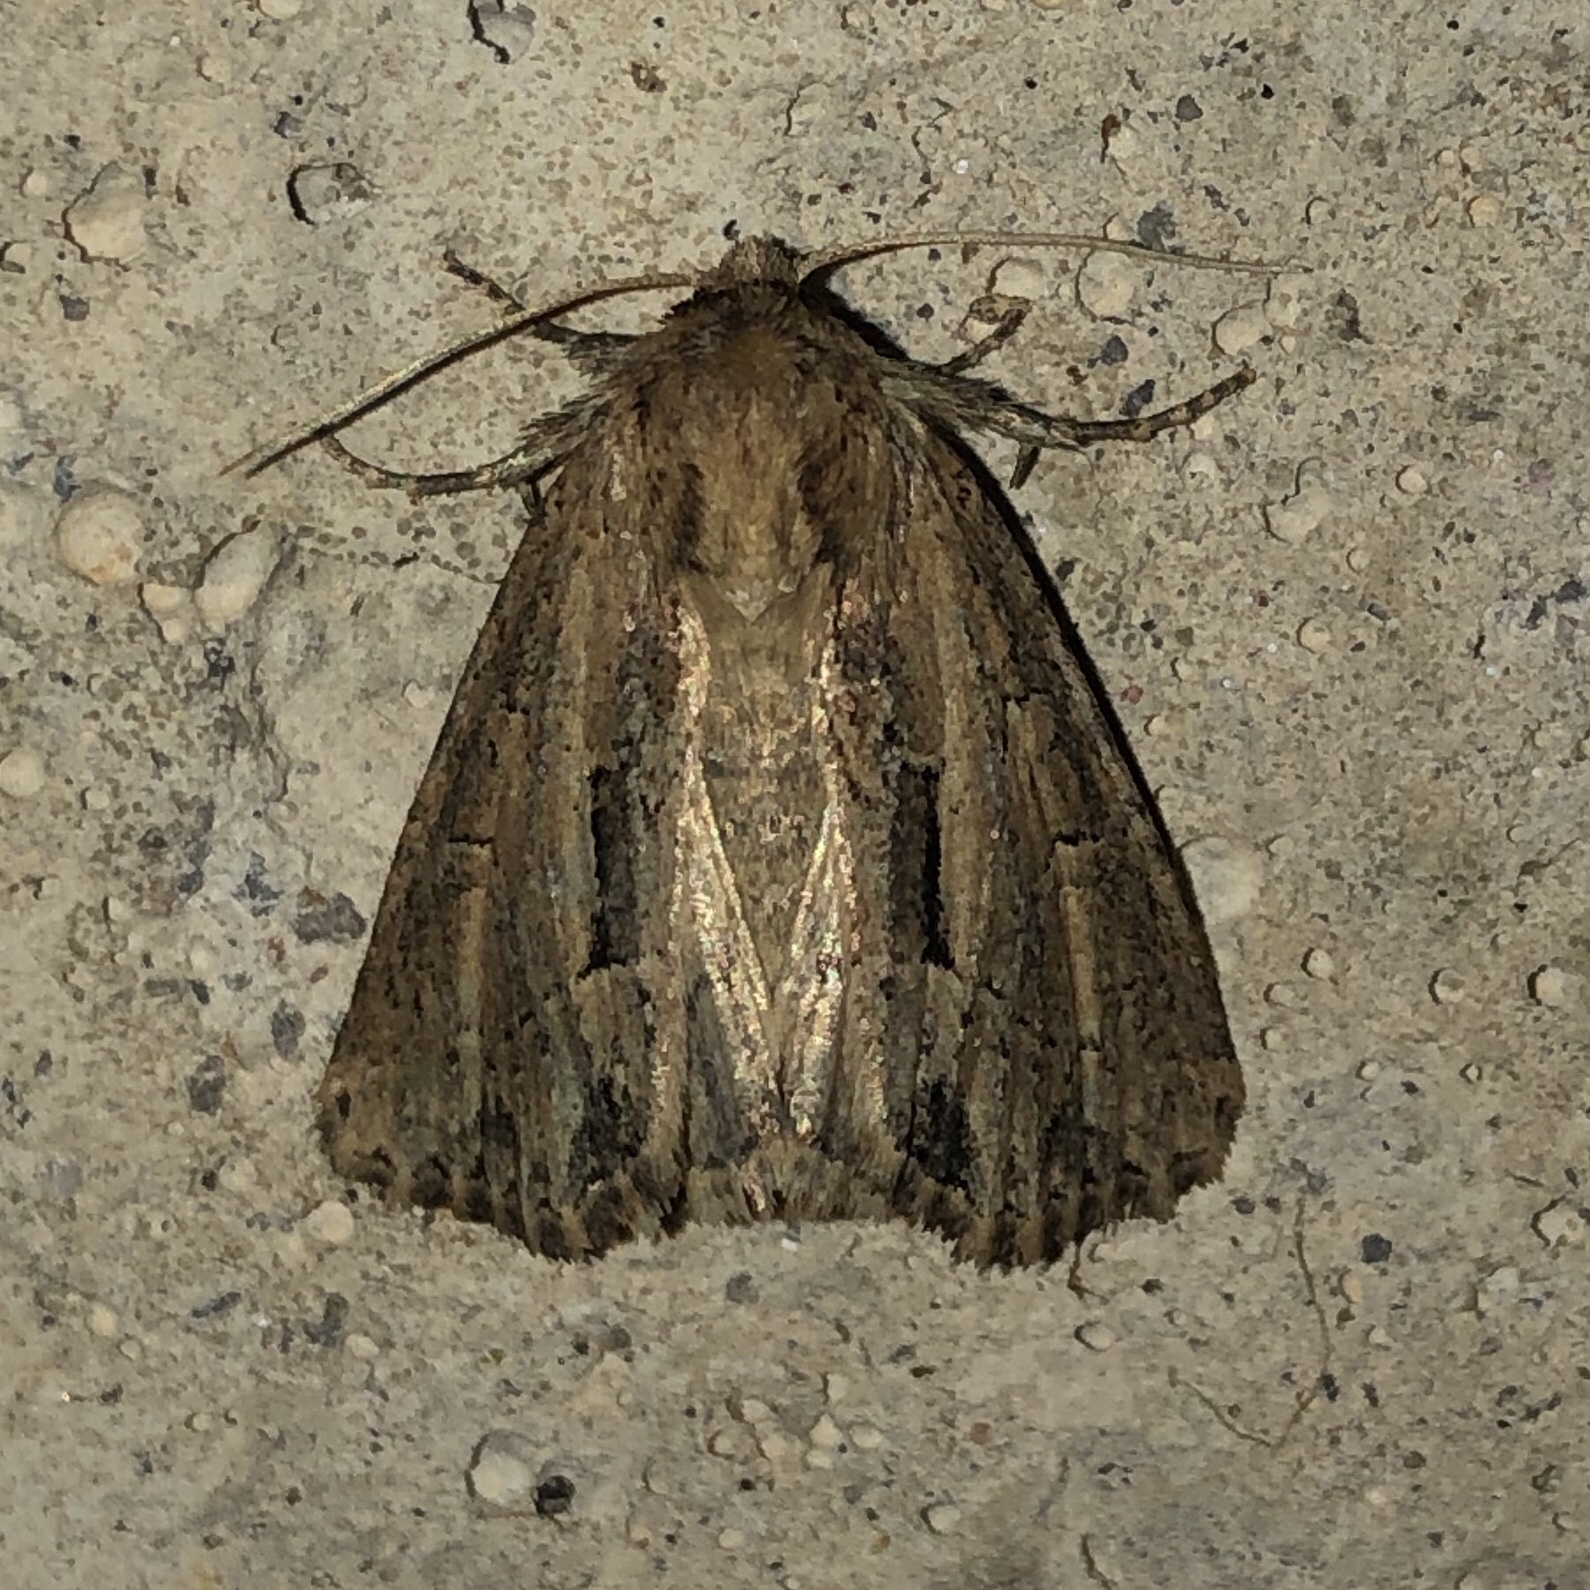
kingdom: Animalia
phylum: Arthropoda
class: Insecta
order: Lepidoptera
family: Noctuidae
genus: Xylomoia
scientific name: Xylomoia chagnoni
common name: Reed canary grass borer moth
